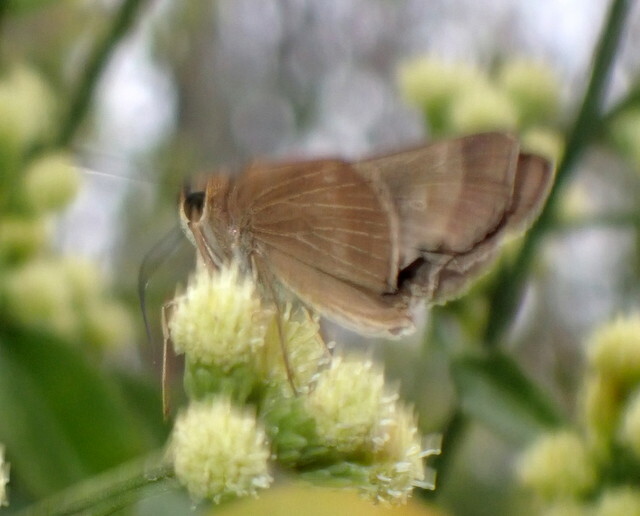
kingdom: Animalia
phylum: Arthropoda
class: Insecta
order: Lepidoptera
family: Hesperiidae
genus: Panoquina
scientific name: Panoquina ocola
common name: Ocola skipper
